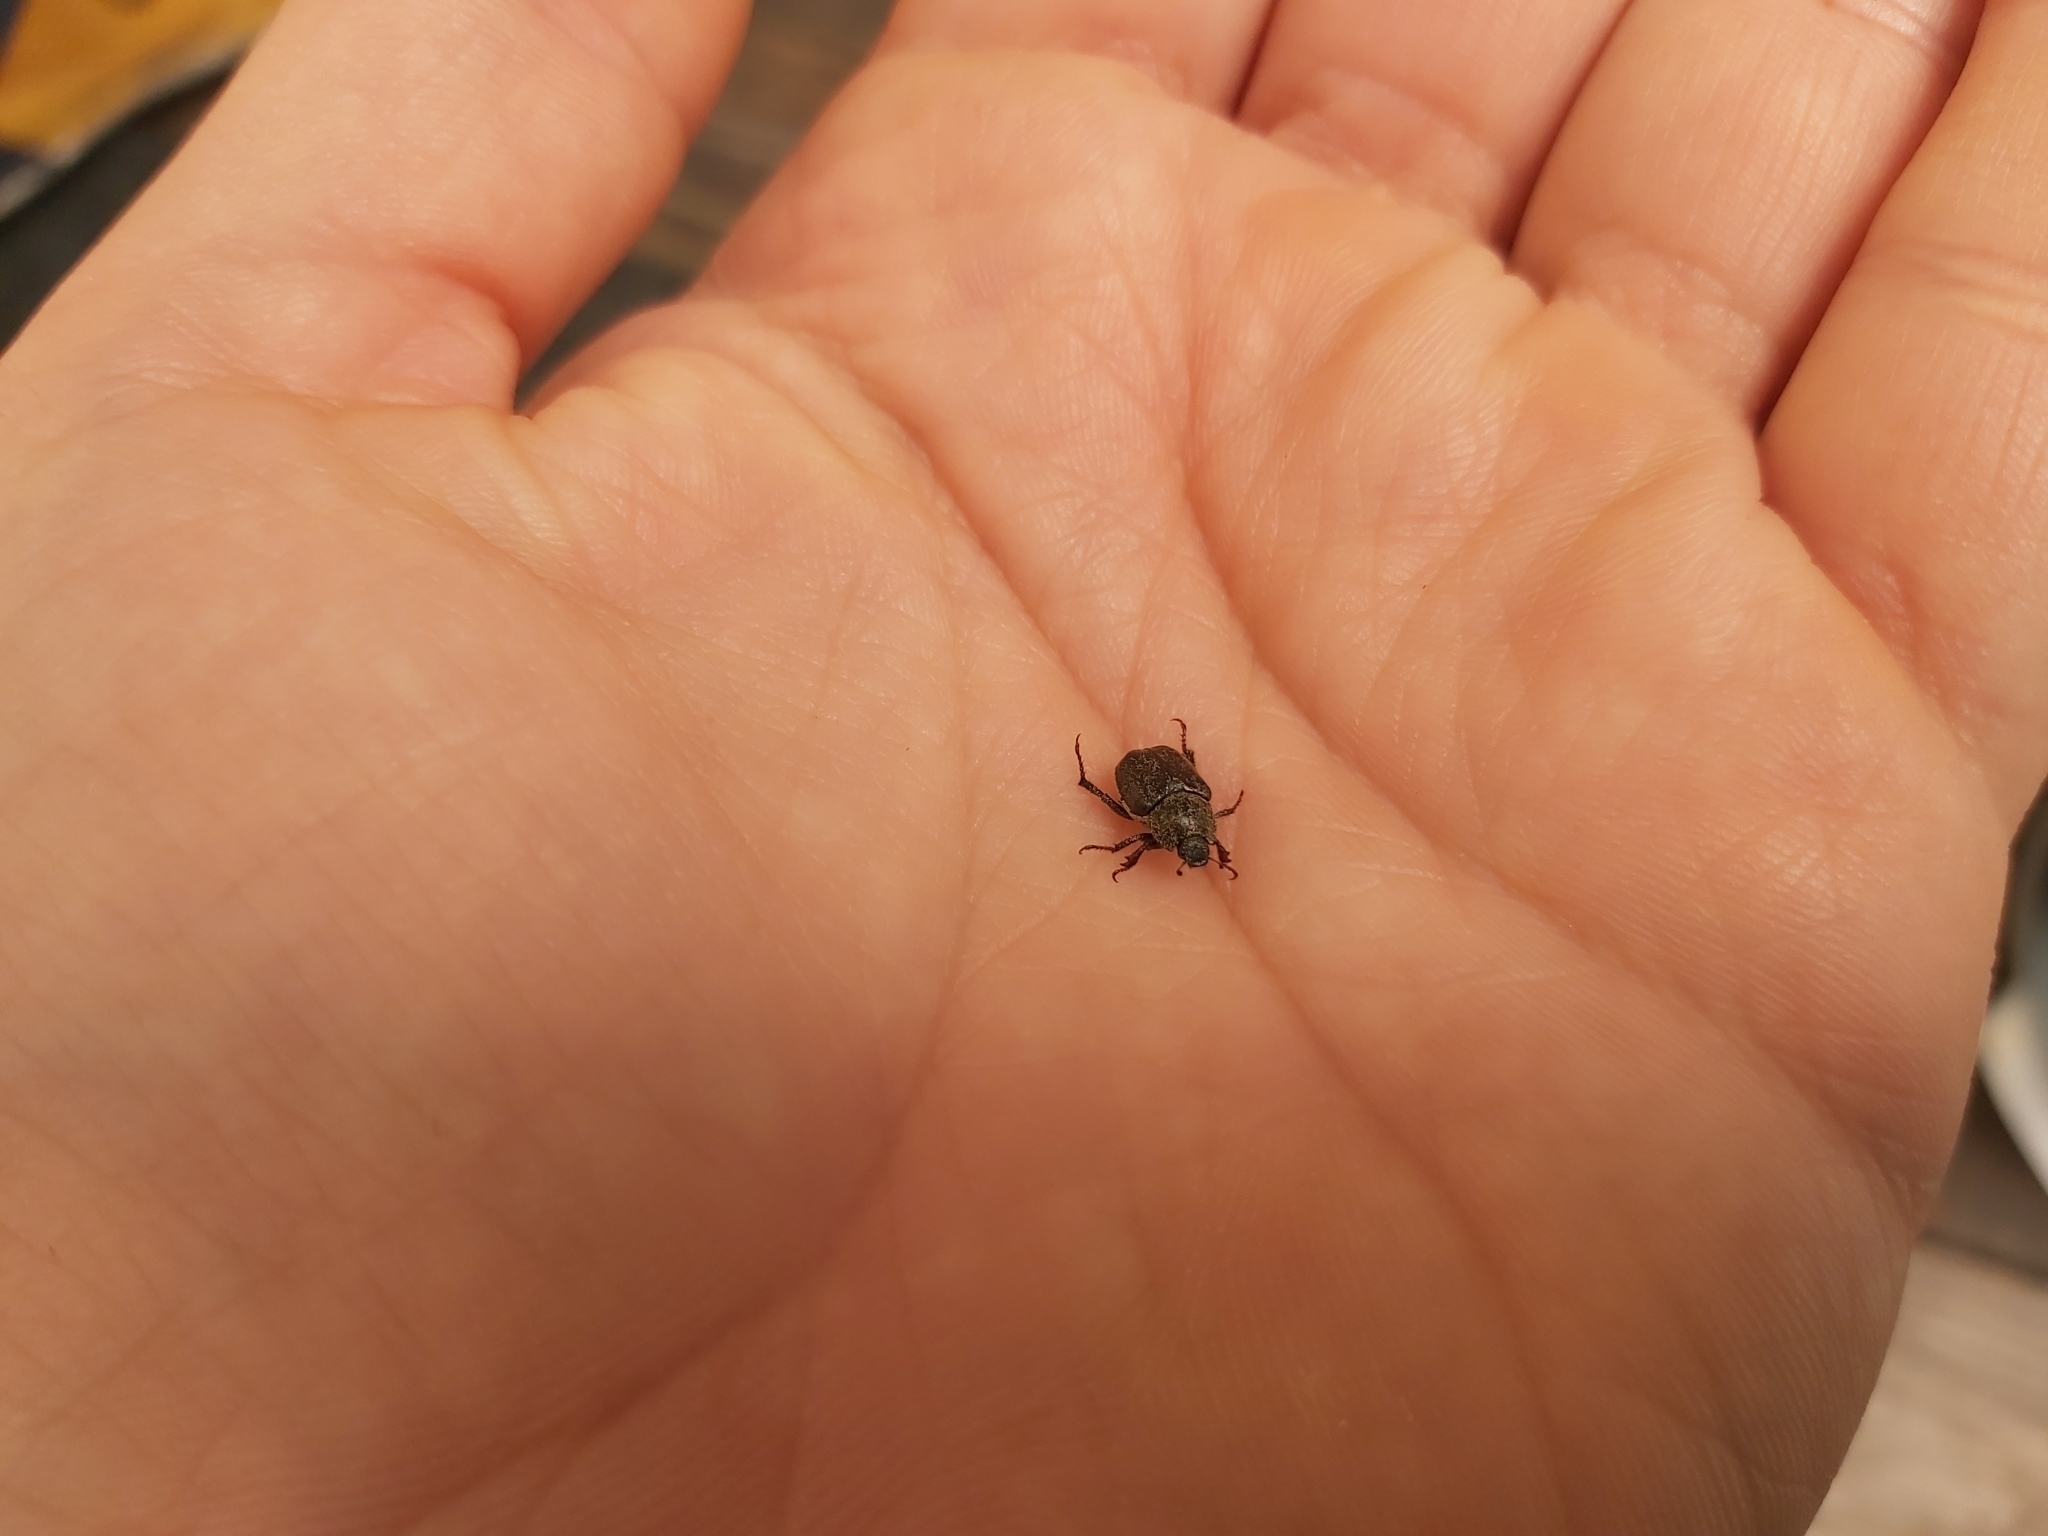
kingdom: Animalia
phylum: Arthropoda
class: Insecta
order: Coleoptera
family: Scarabaeidae
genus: Hoplia
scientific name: Hoplia graminicola
